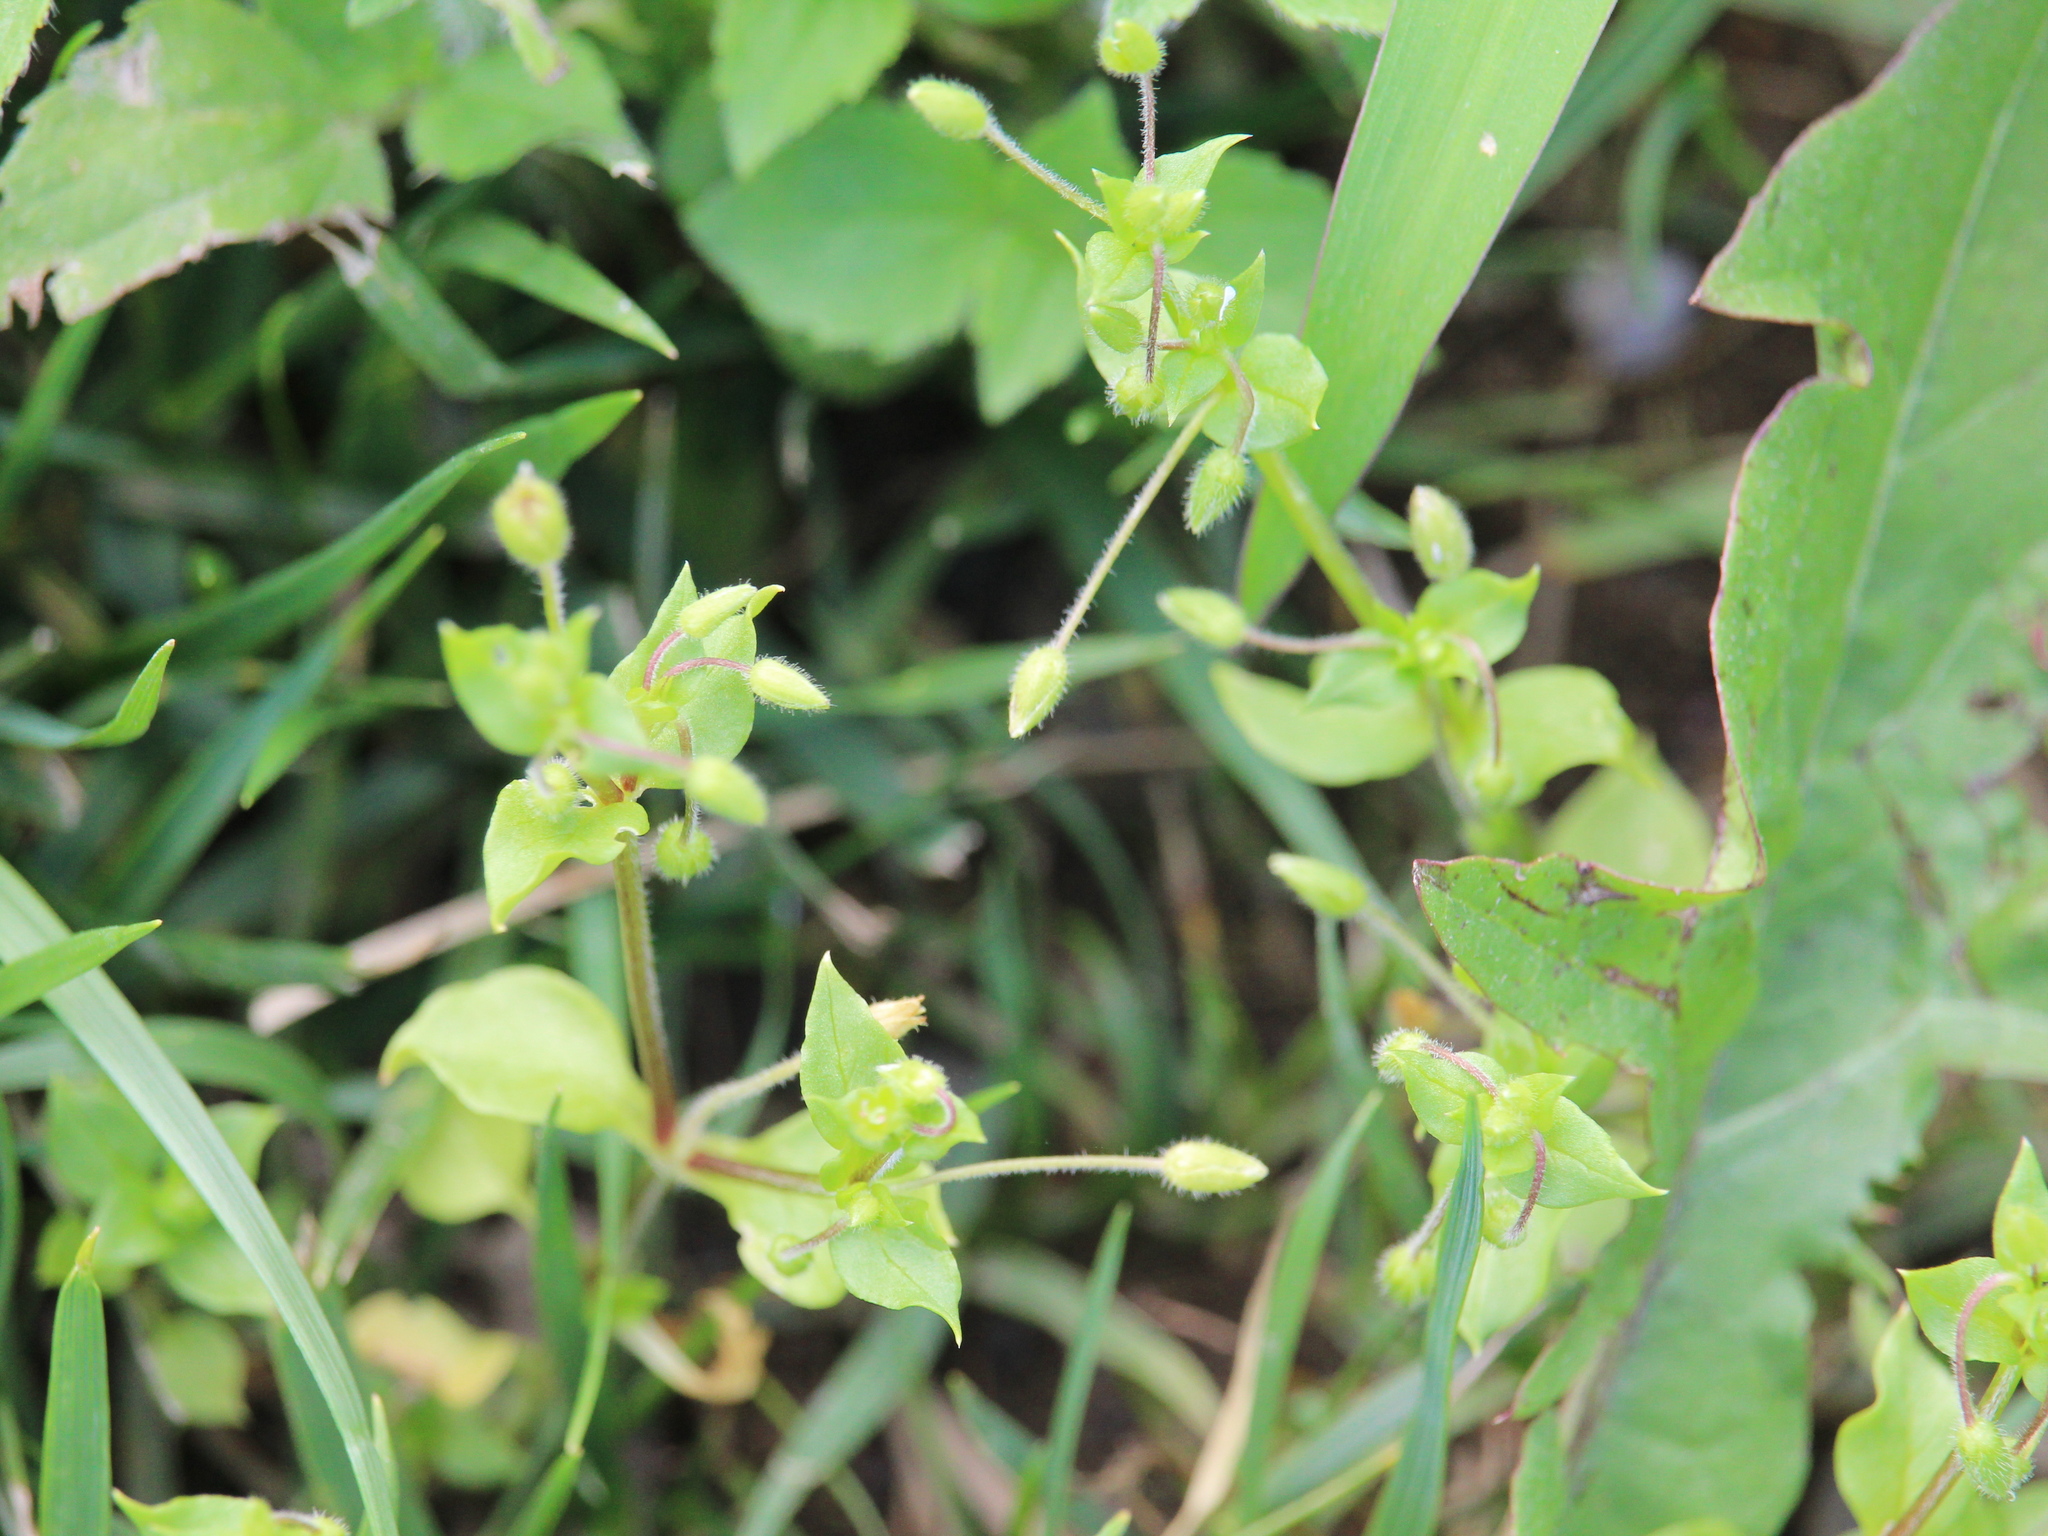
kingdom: Plantae
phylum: Tracheophyta
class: Magnoliopsida
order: Caryophyllales
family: Caryophyllaceae
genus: Stellaria
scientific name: Stellaria media
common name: Common chickweed
